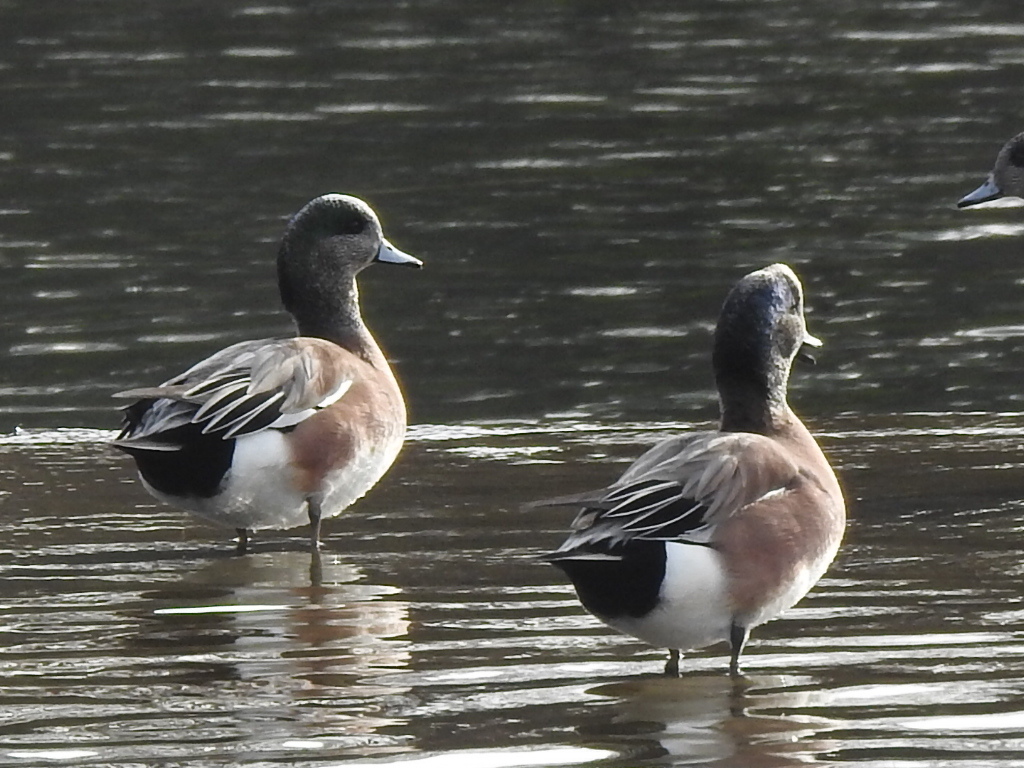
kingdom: Animalia
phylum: Chordata
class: Aves
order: Anseriformes
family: Anatidae
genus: Mareca
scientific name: Mareca americana
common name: American wigeon
